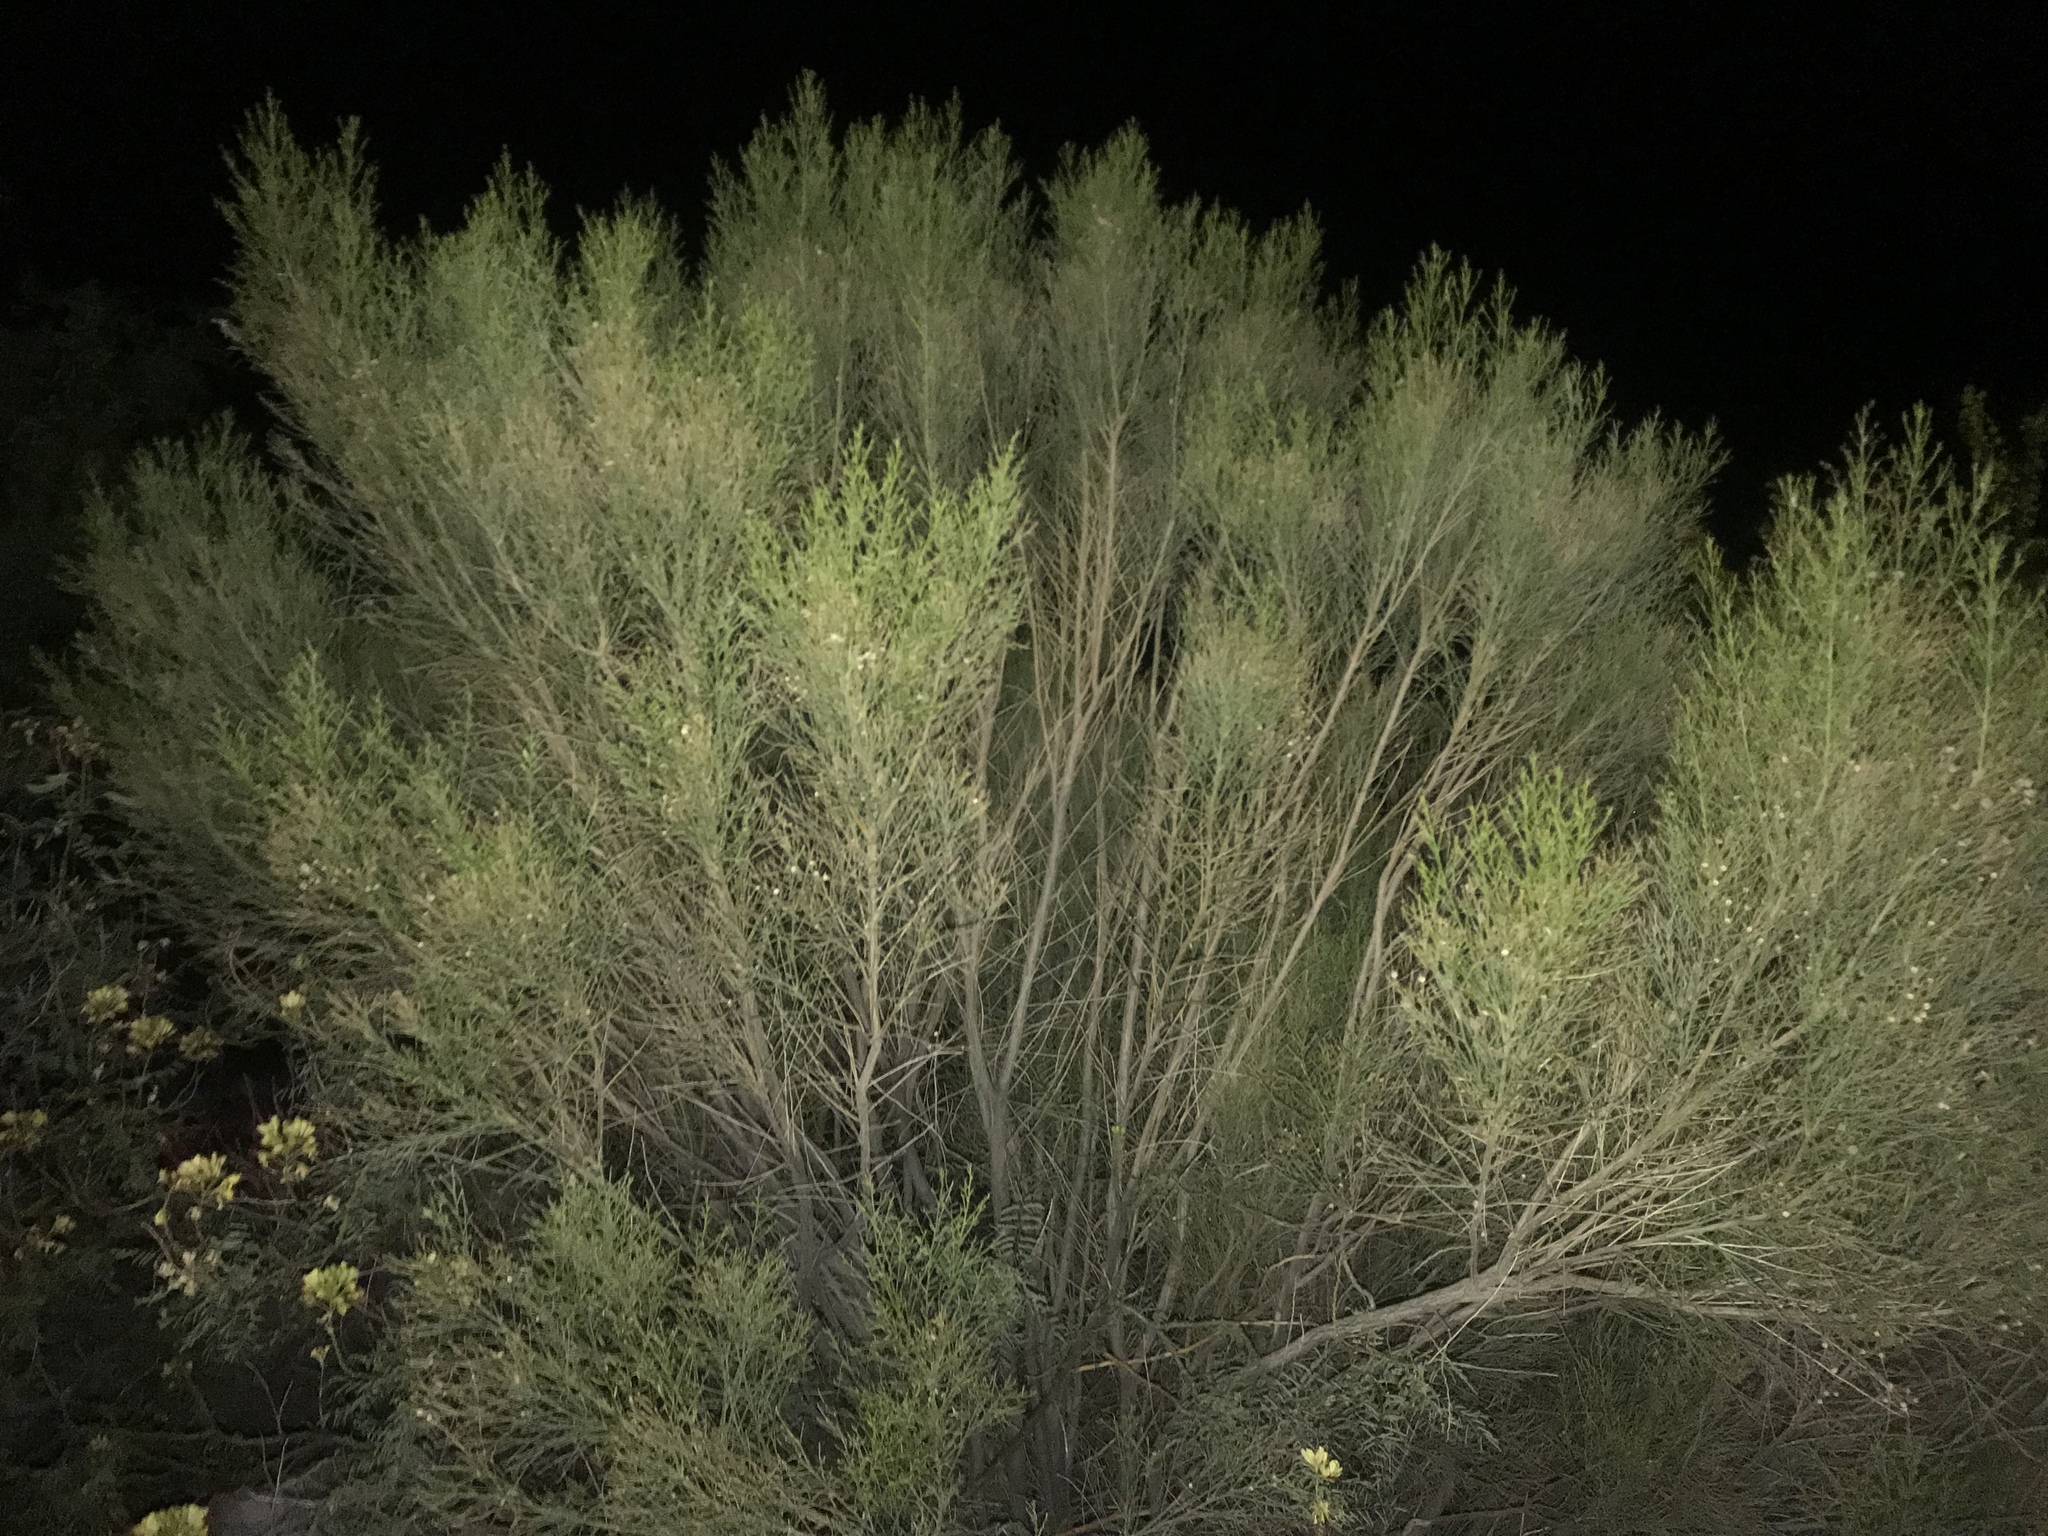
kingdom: Plantae
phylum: Tracheophyta
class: Magnoliopsida
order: Asterales
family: Asteraceae
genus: Baccharis
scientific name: Baccharis sarothroides
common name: Desert-broom
